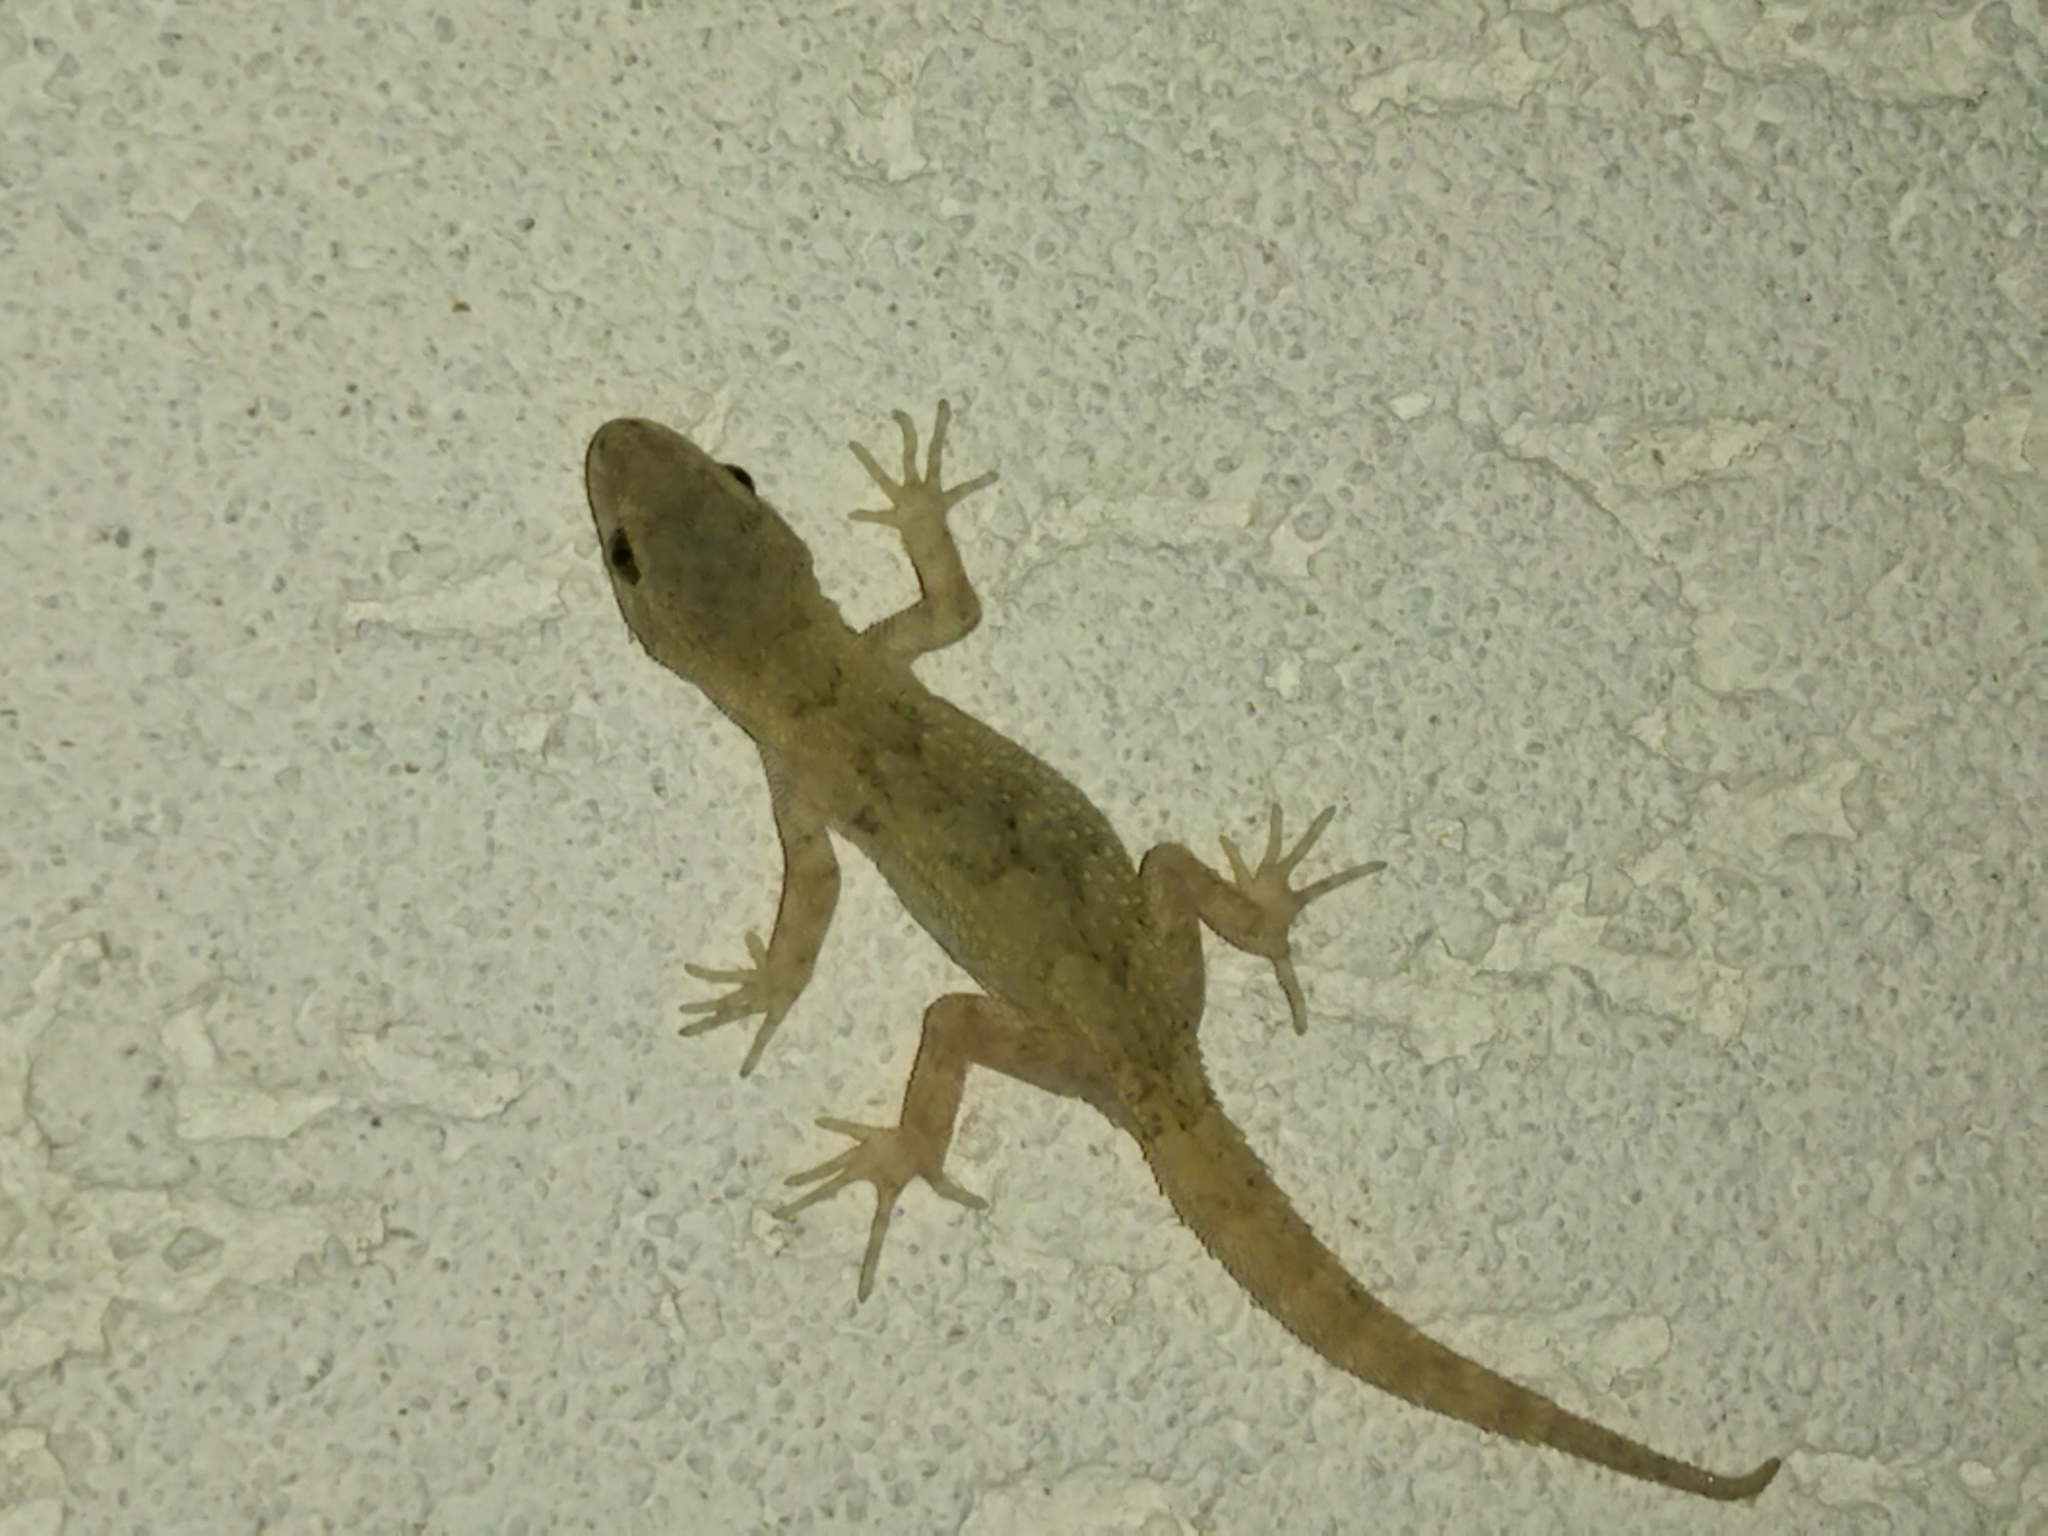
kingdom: Animalia
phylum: Chordata
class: Squamata
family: Gekkonidae
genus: Mediodactylus
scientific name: Mediodactylus kotschyi
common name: Kotschy's gecko
